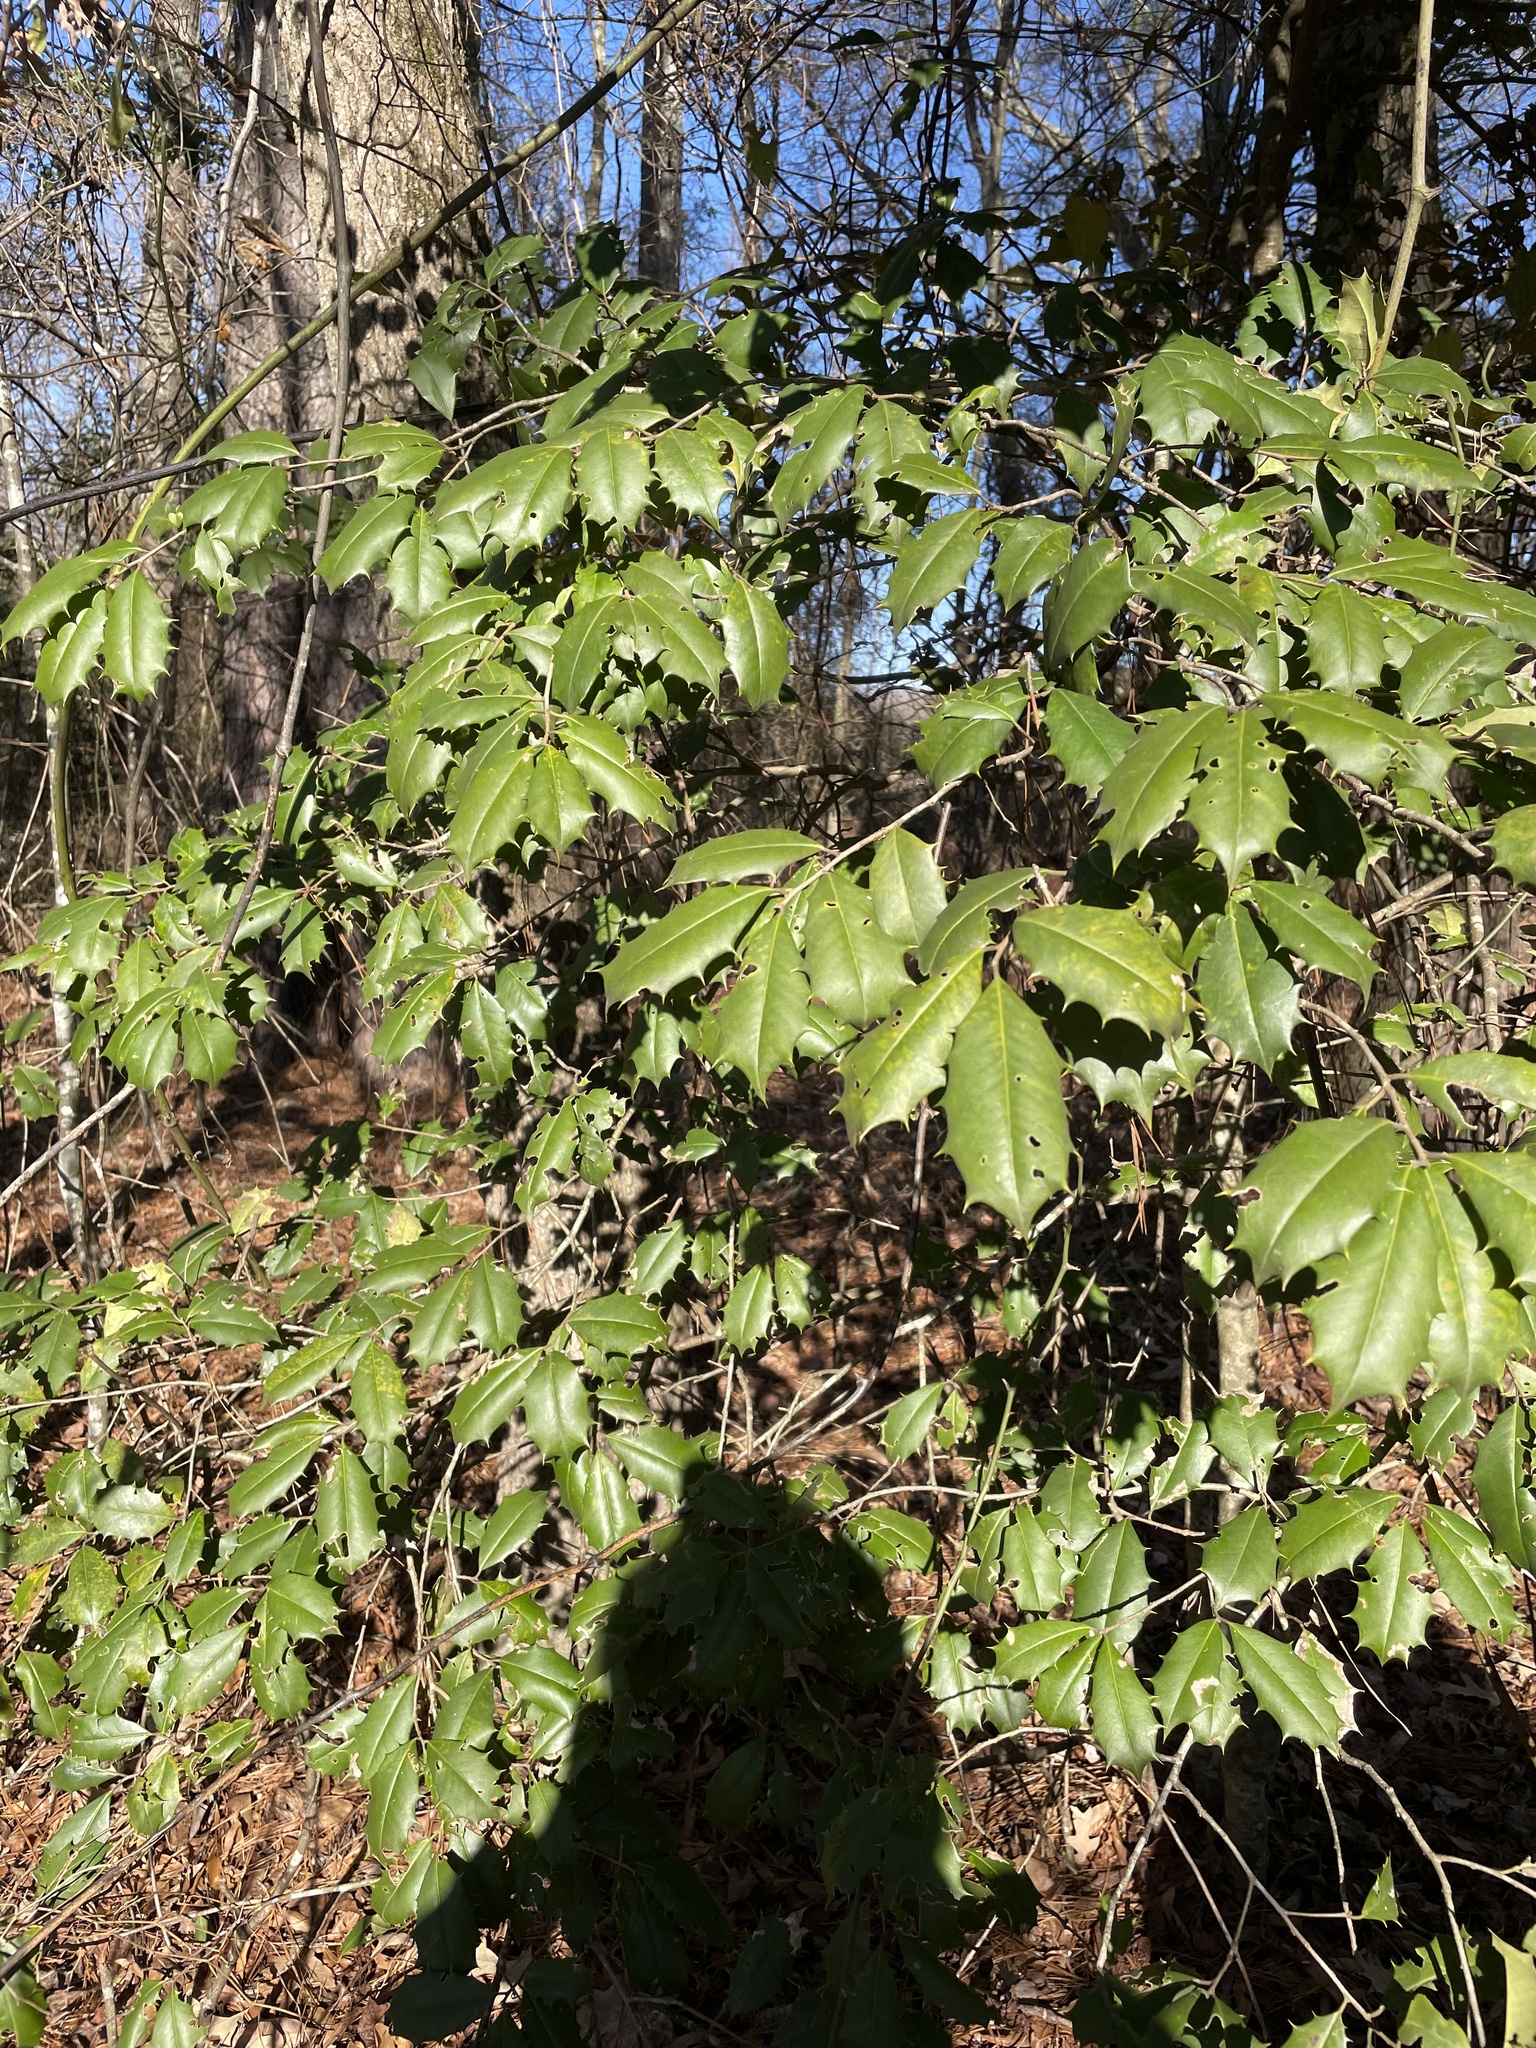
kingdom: Plantae
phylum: Tracheophyta
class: Magnoliopsida
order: Aquifoliales
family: Aquifoliaceae
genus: Ilex
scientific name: Ilex opaca
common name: American holly
